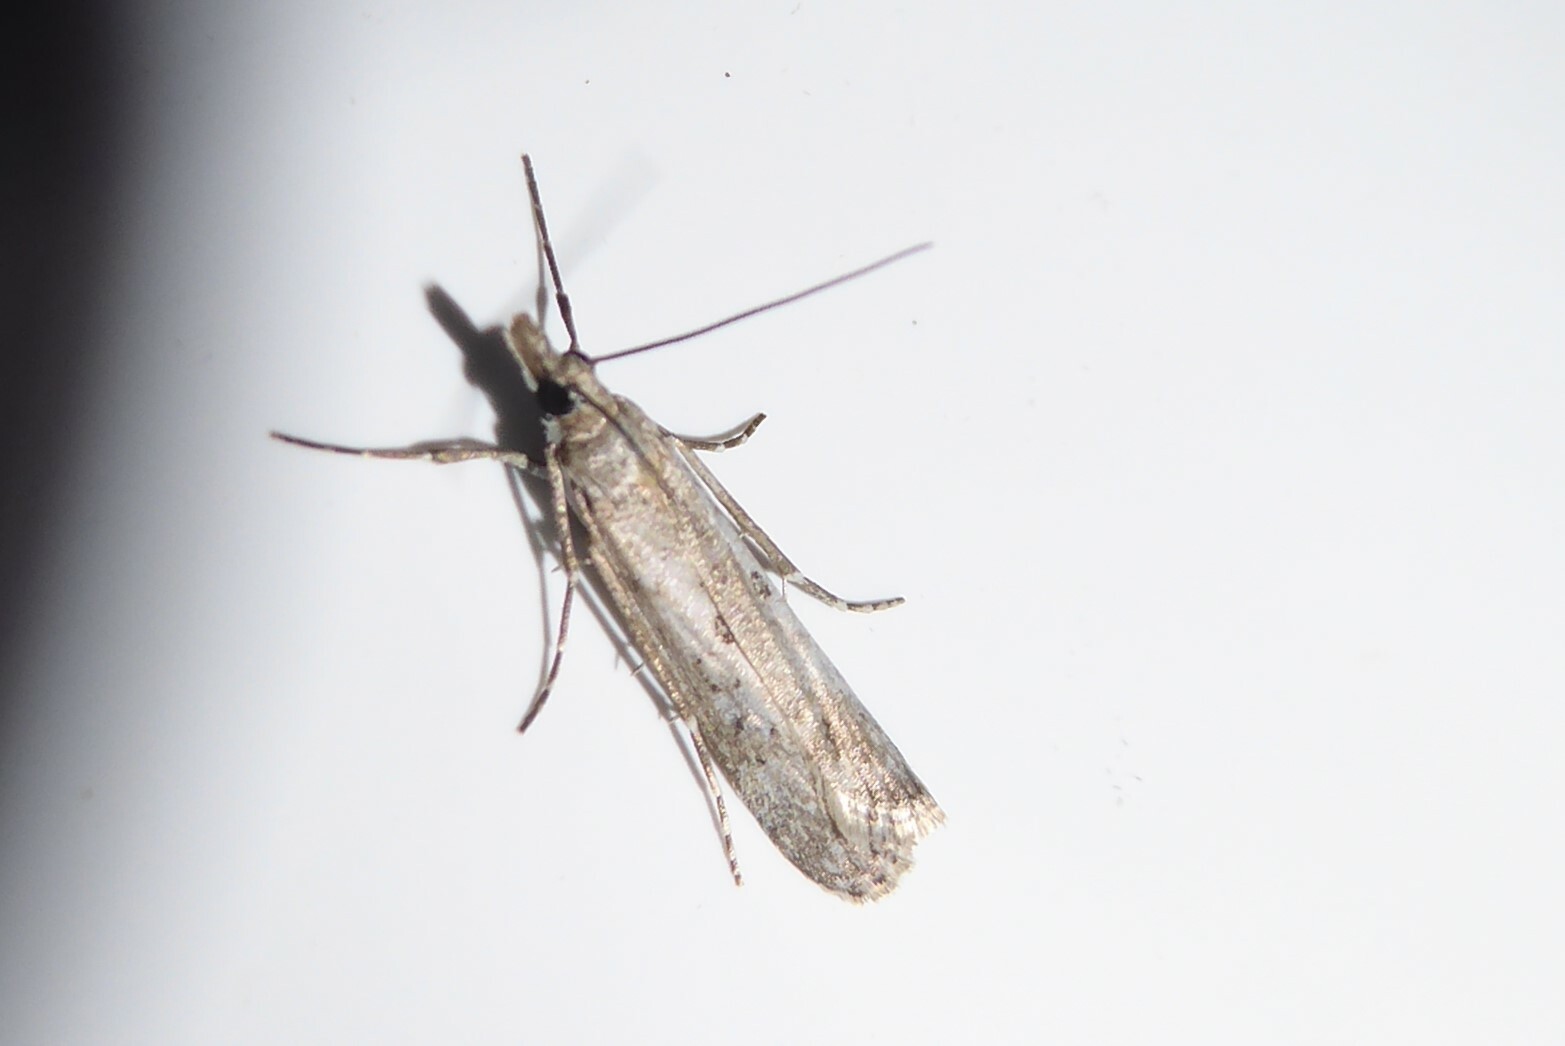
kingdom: Animalia
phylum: Arthropoda
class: Insecta
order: Lepidoptera
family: Crambidae
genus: Eudonia
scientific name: Eudonia leptalea
